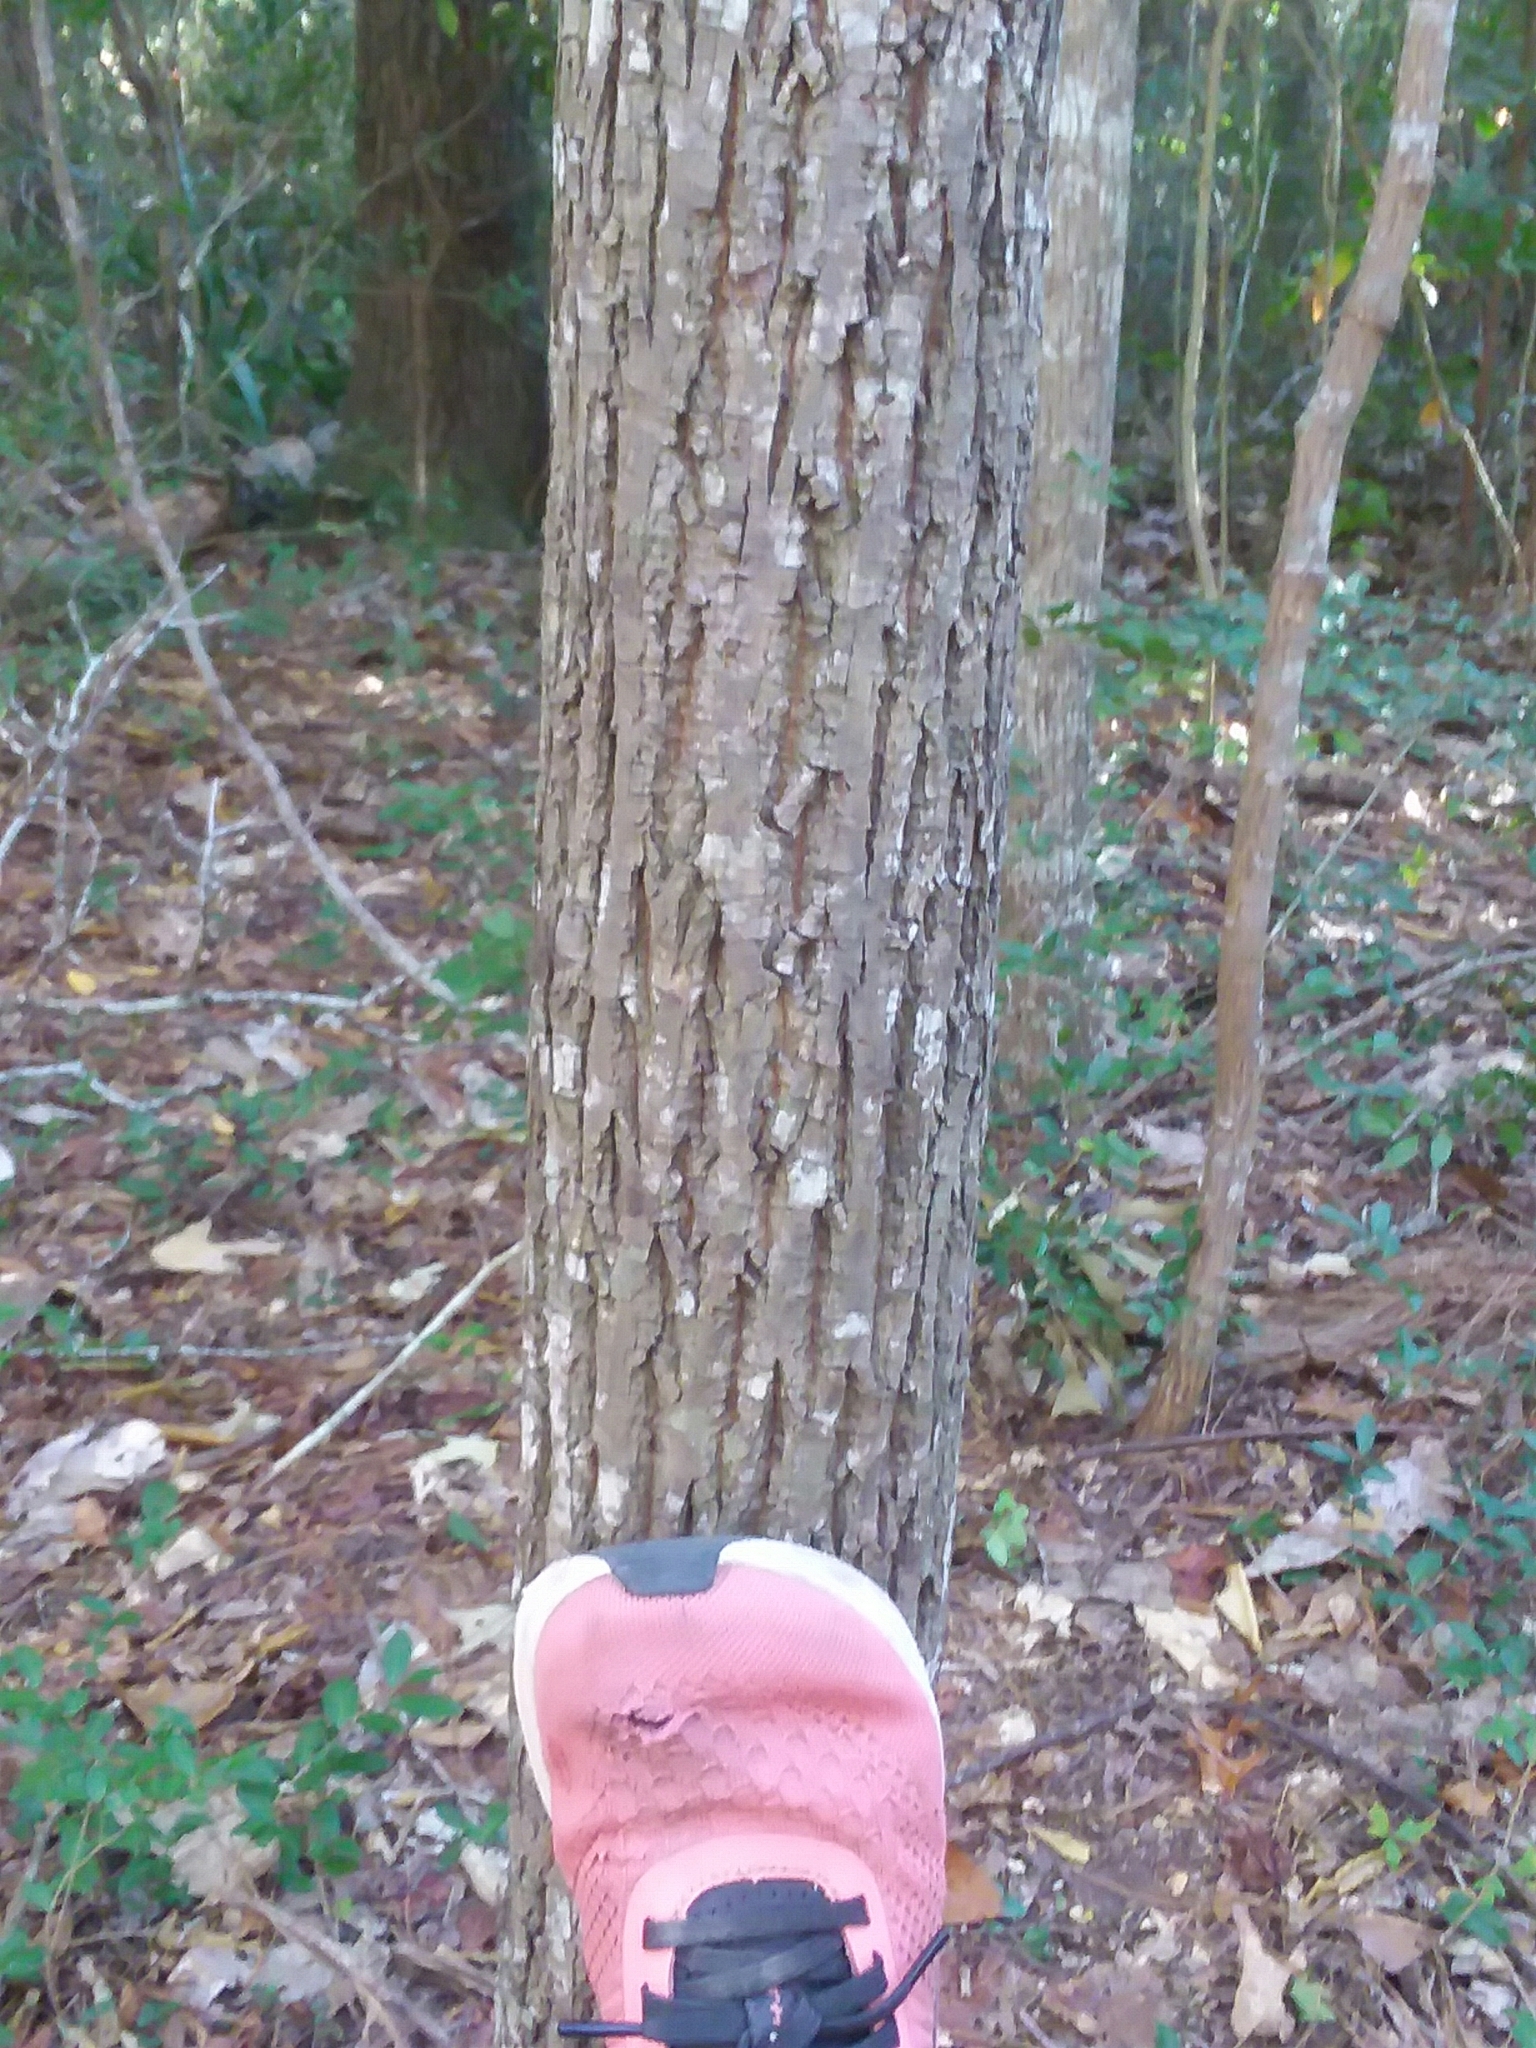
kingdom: Plantae
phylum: Tracheophyta
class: Magnoliopsida
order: Fagales
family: Juglandaceae
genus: Carya
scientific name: Carya alba
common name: Mockernut hickory
